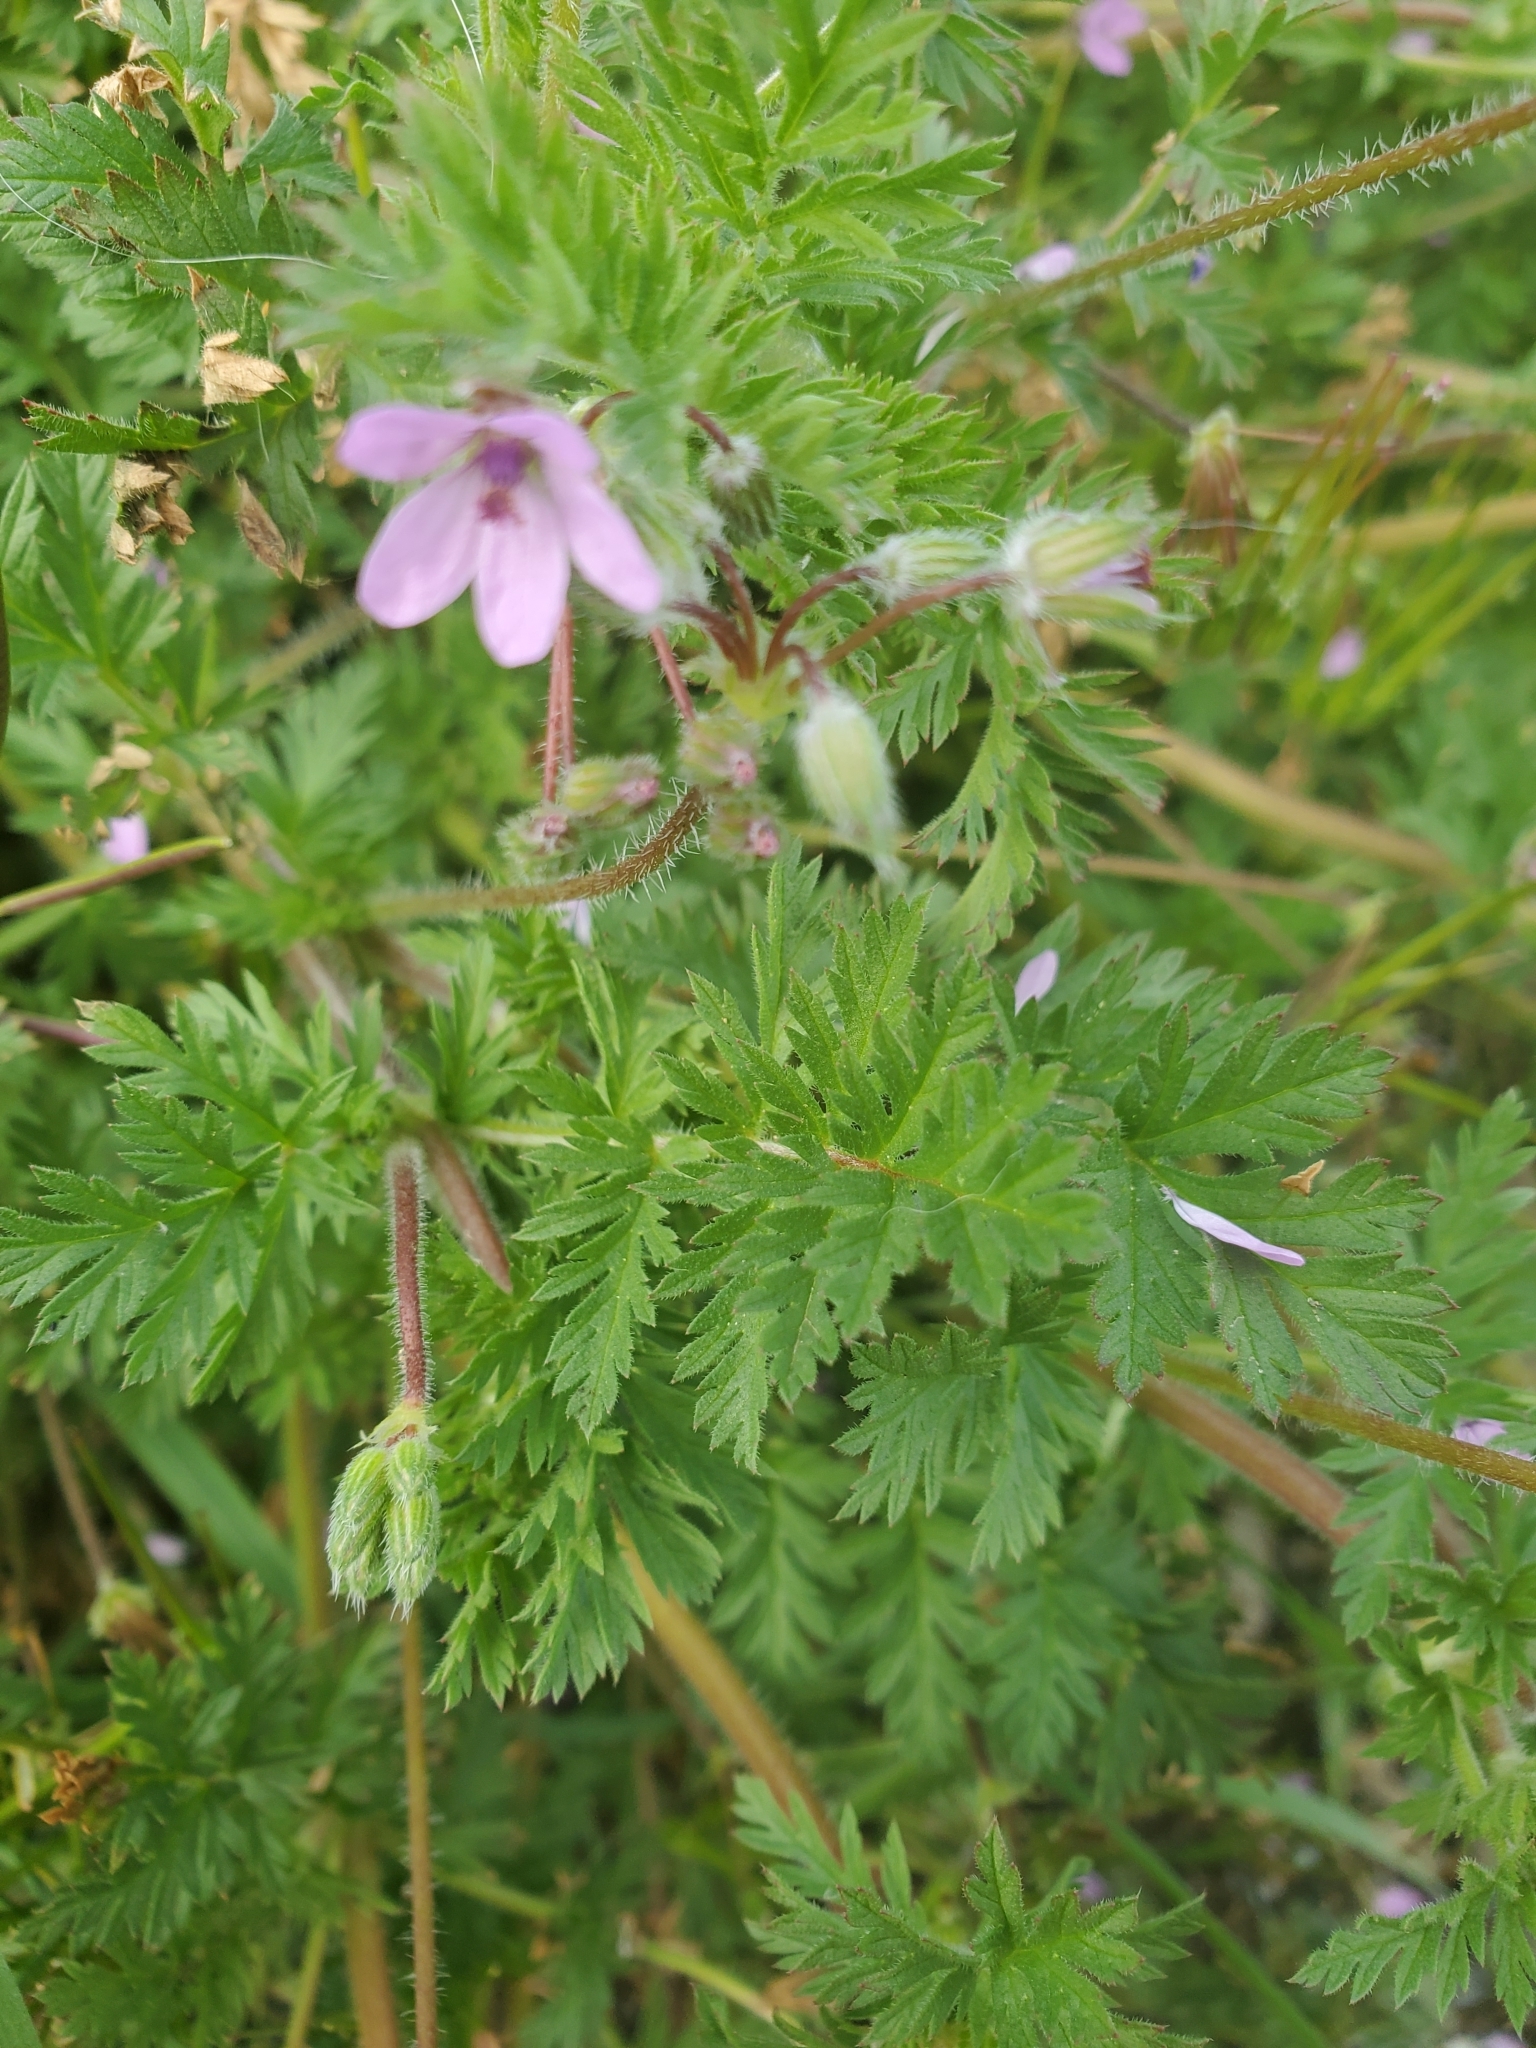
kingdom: Plantae
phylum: Tracheophyta
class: Magnoliopsida
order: Geraniales
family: Geraniaceae
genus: Erodium
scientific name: Erodium cicutarium
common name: Common stork's-bill
